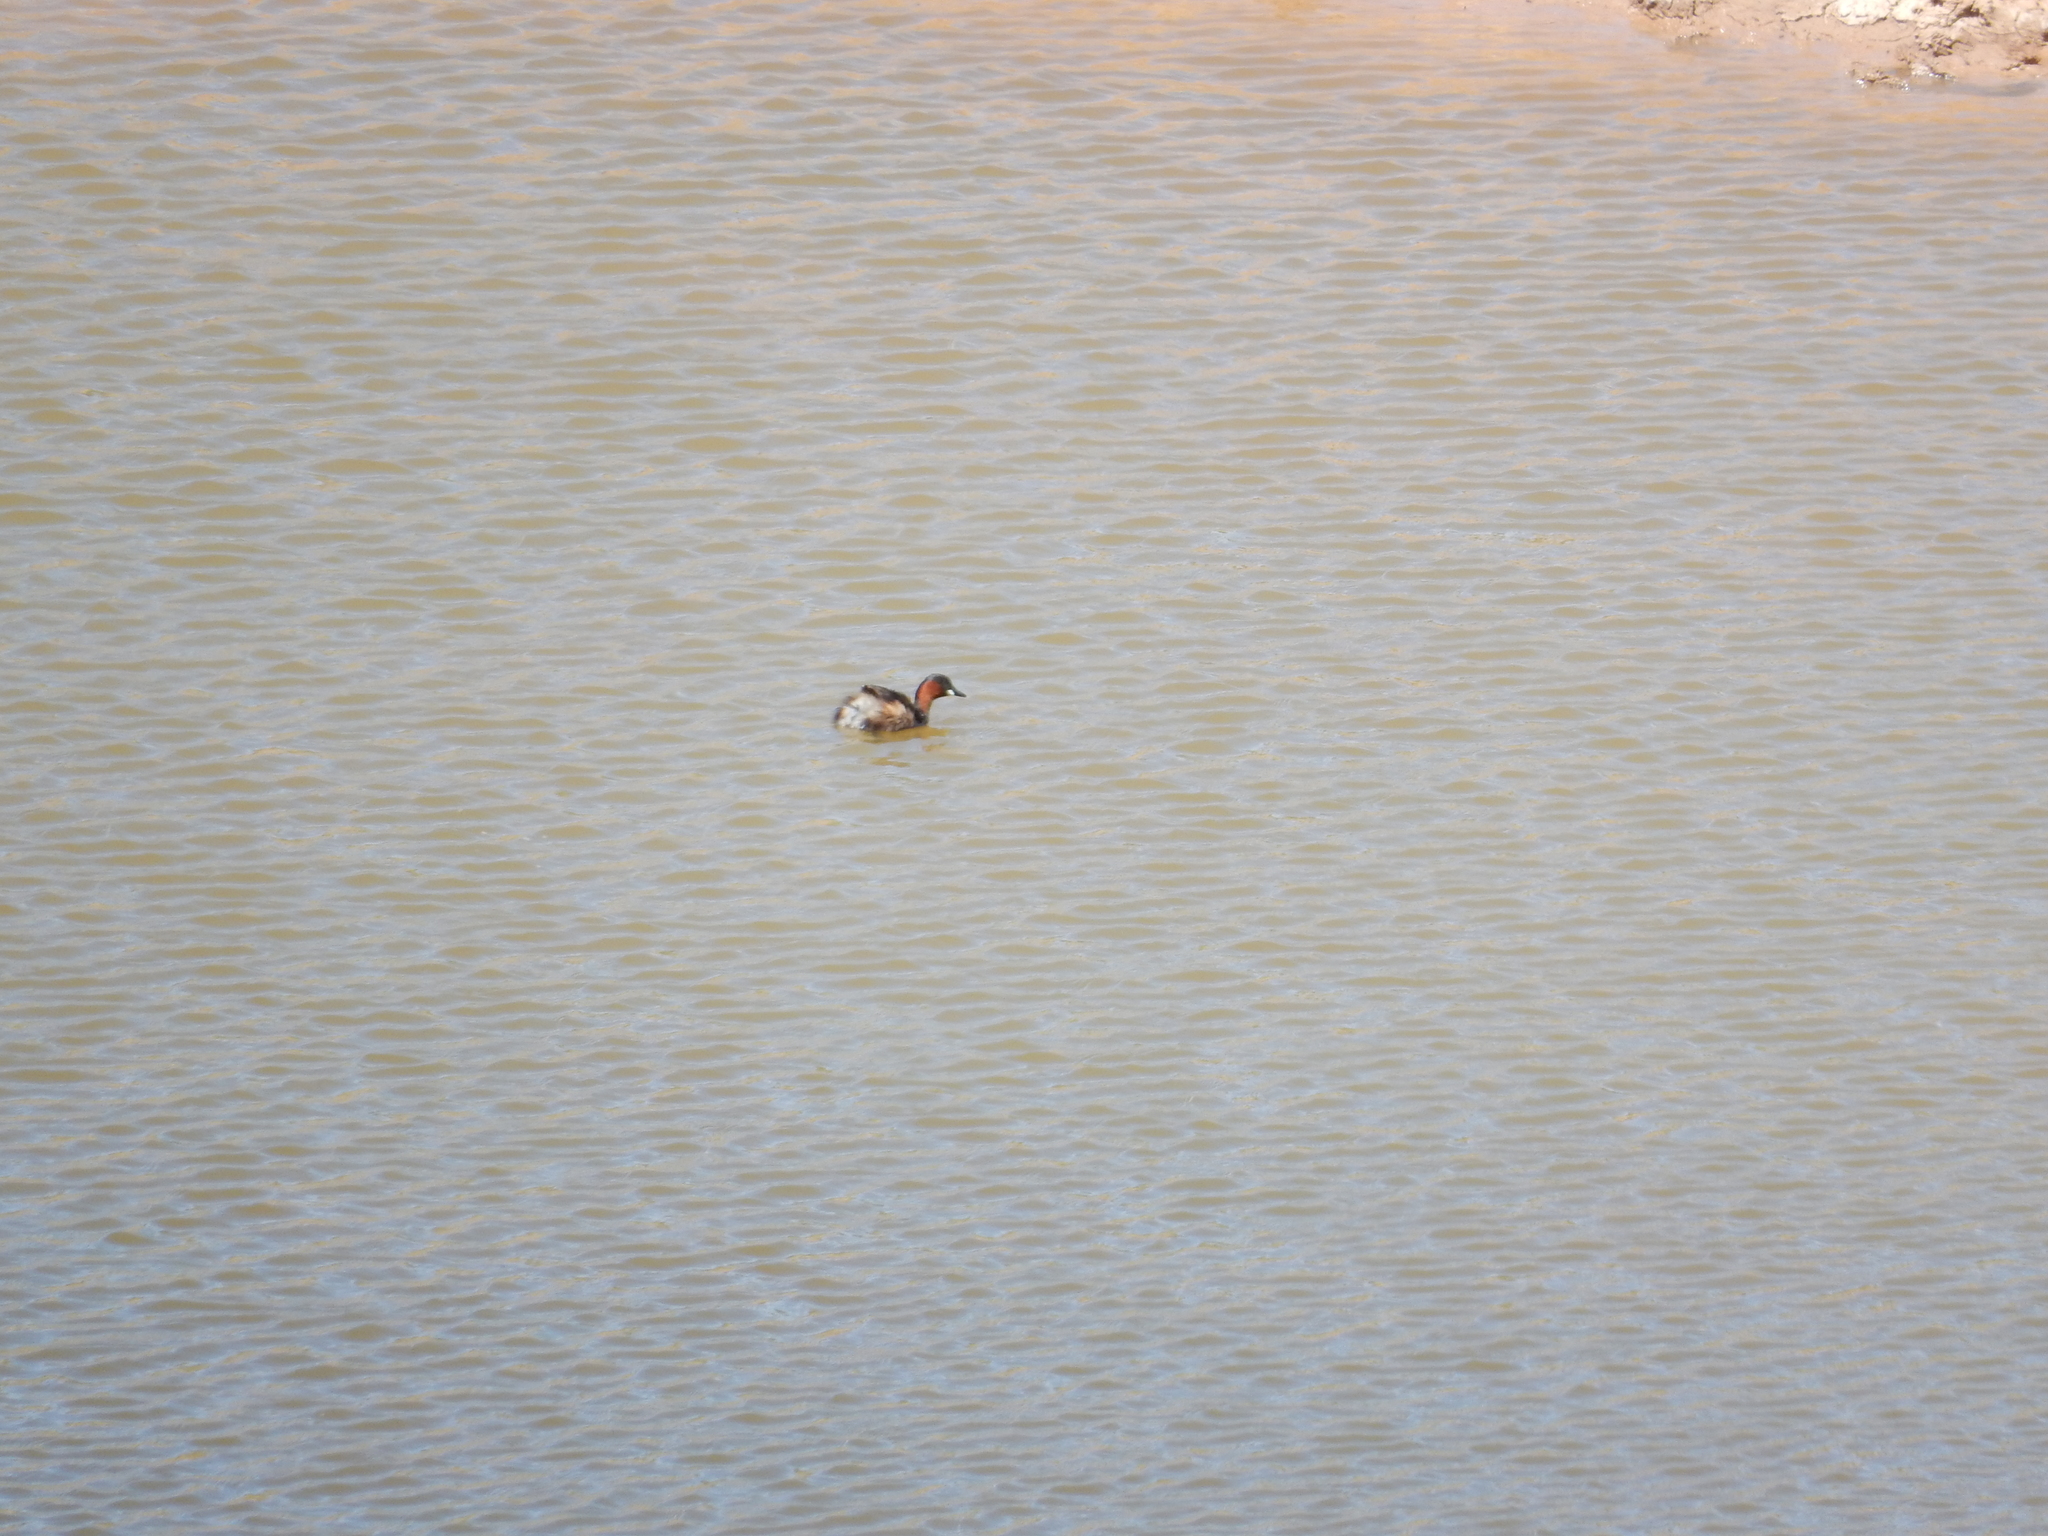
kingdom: Animalia
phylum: Chordata
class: Aves
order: Podicipediformes
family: Podicipedidae
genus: Tachybaptus
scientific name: Tachybaptus ruficollis
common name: Little grebe
